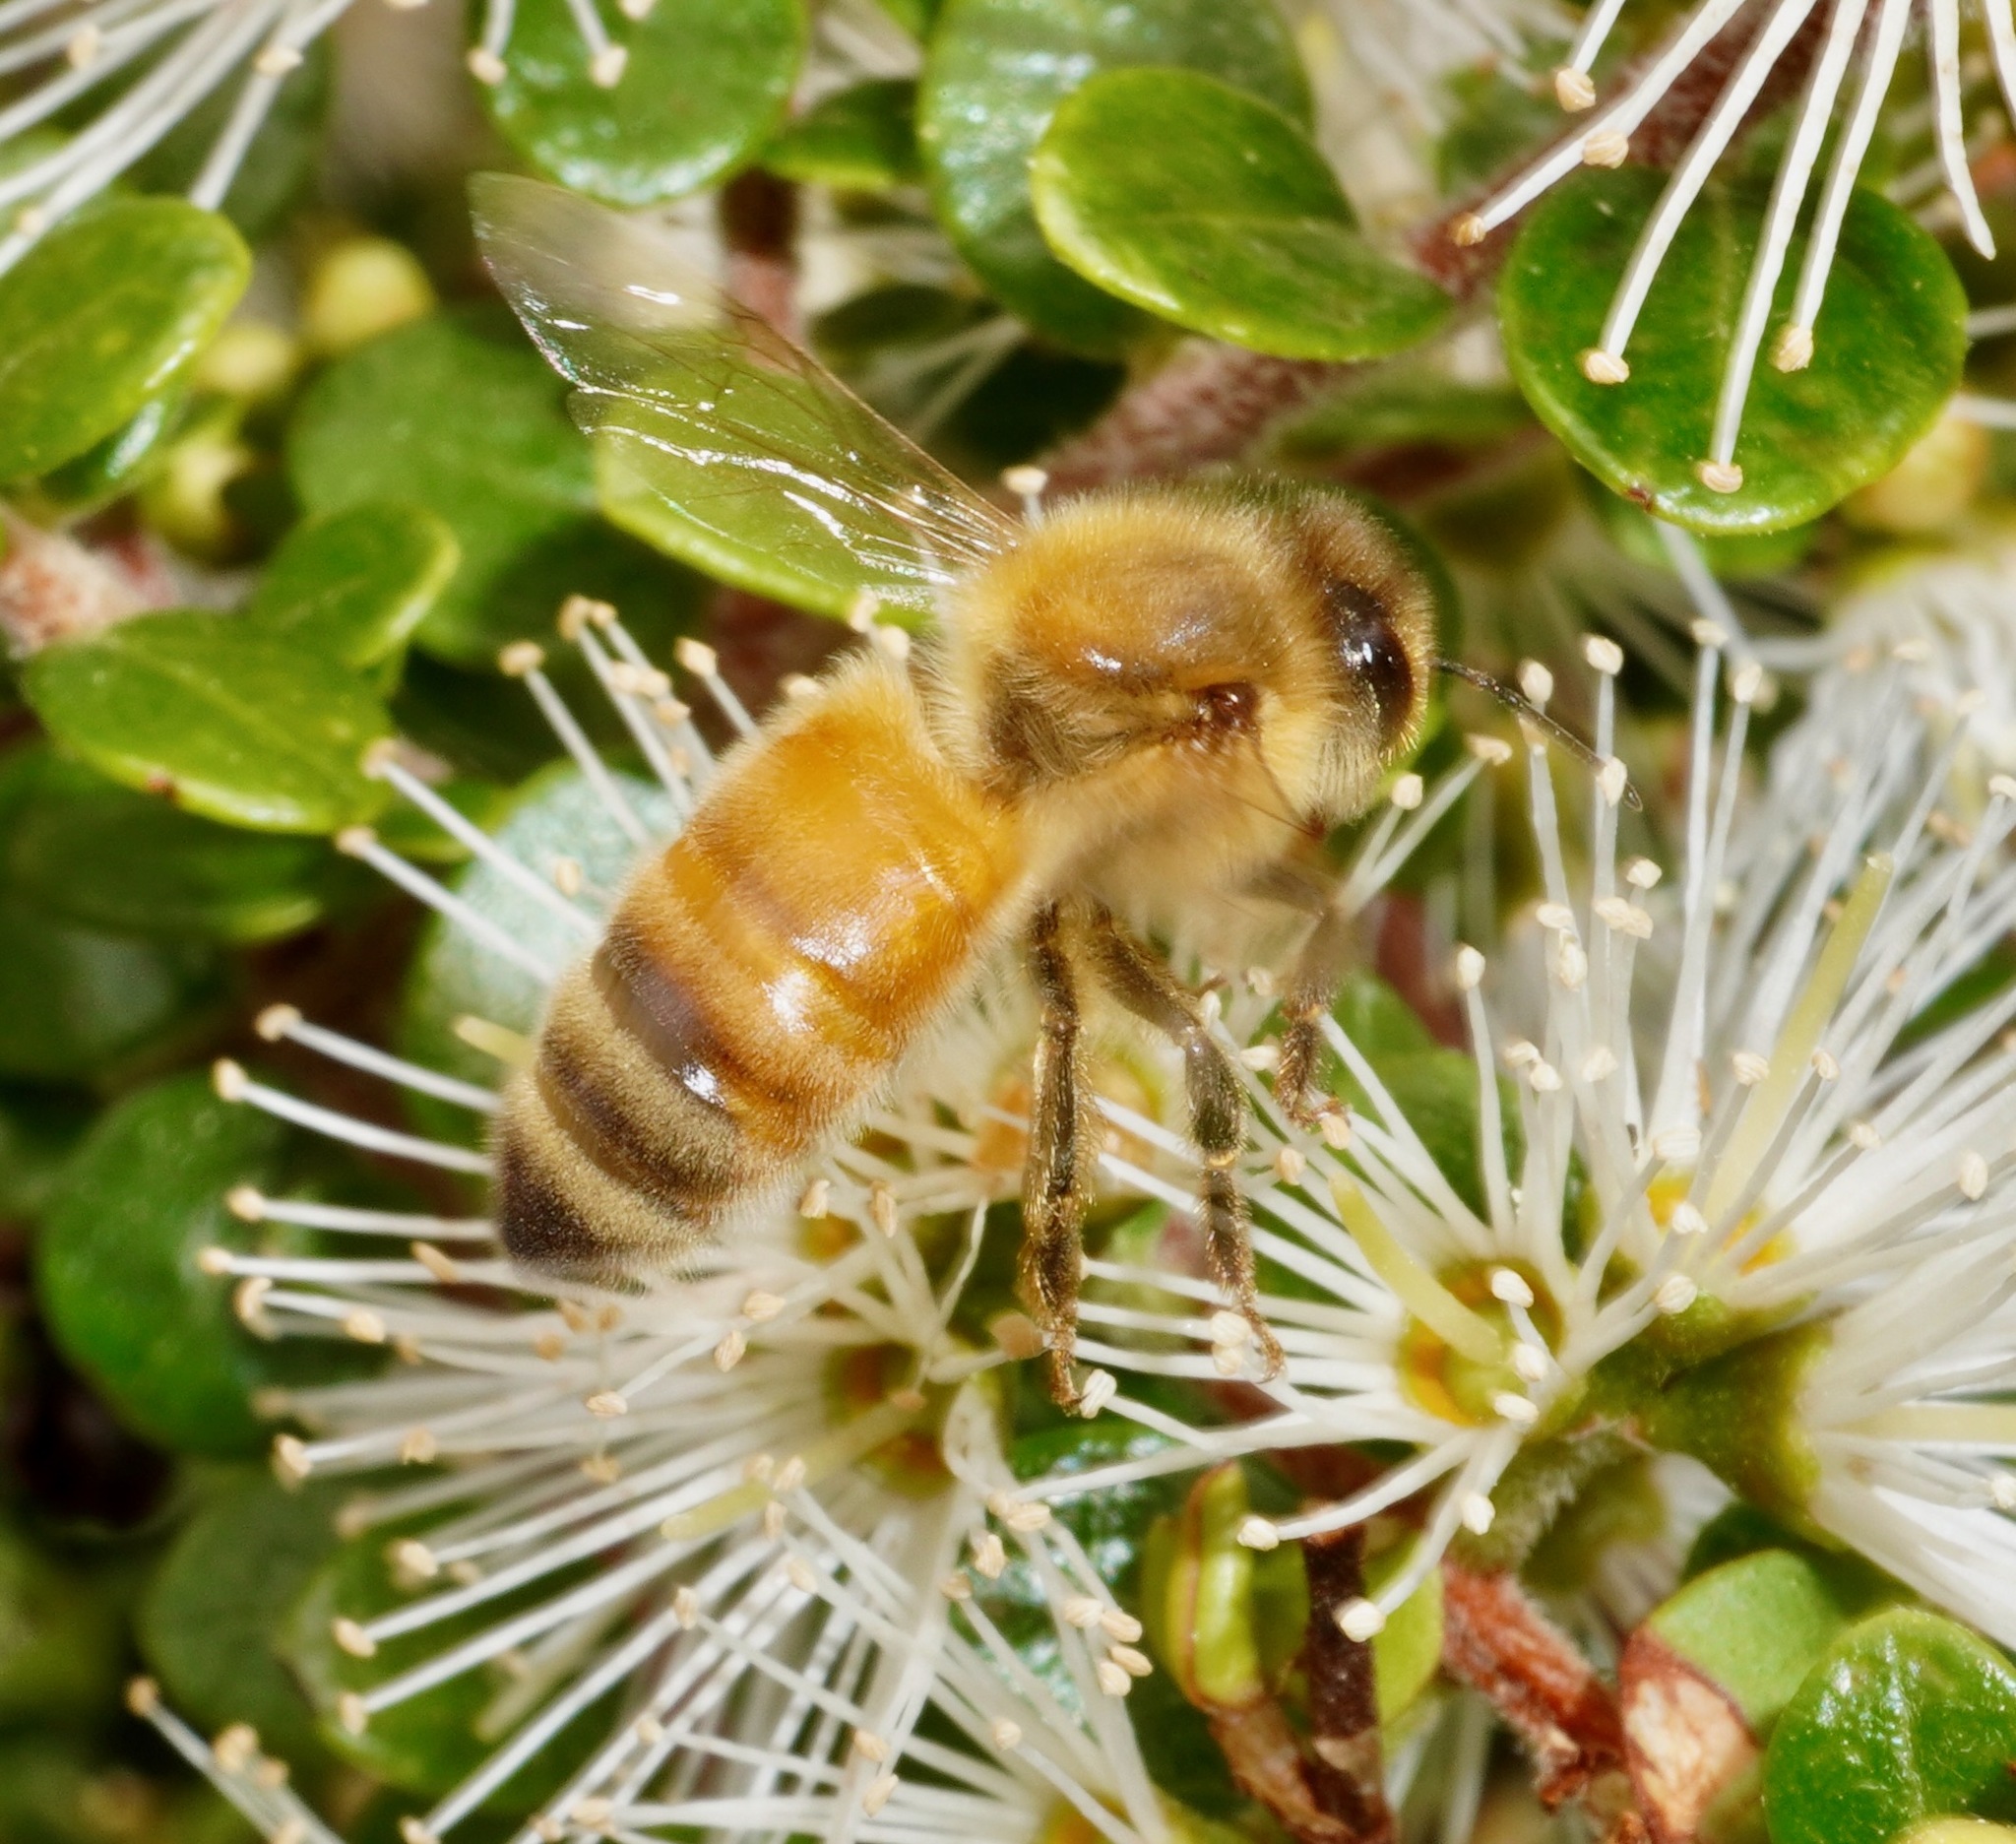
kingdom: Animalia
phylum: Arthropoda
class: Insecta
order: Hymenoptera
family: Apidae
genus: Apis
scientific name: Apis mellifera
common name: Honey bee
